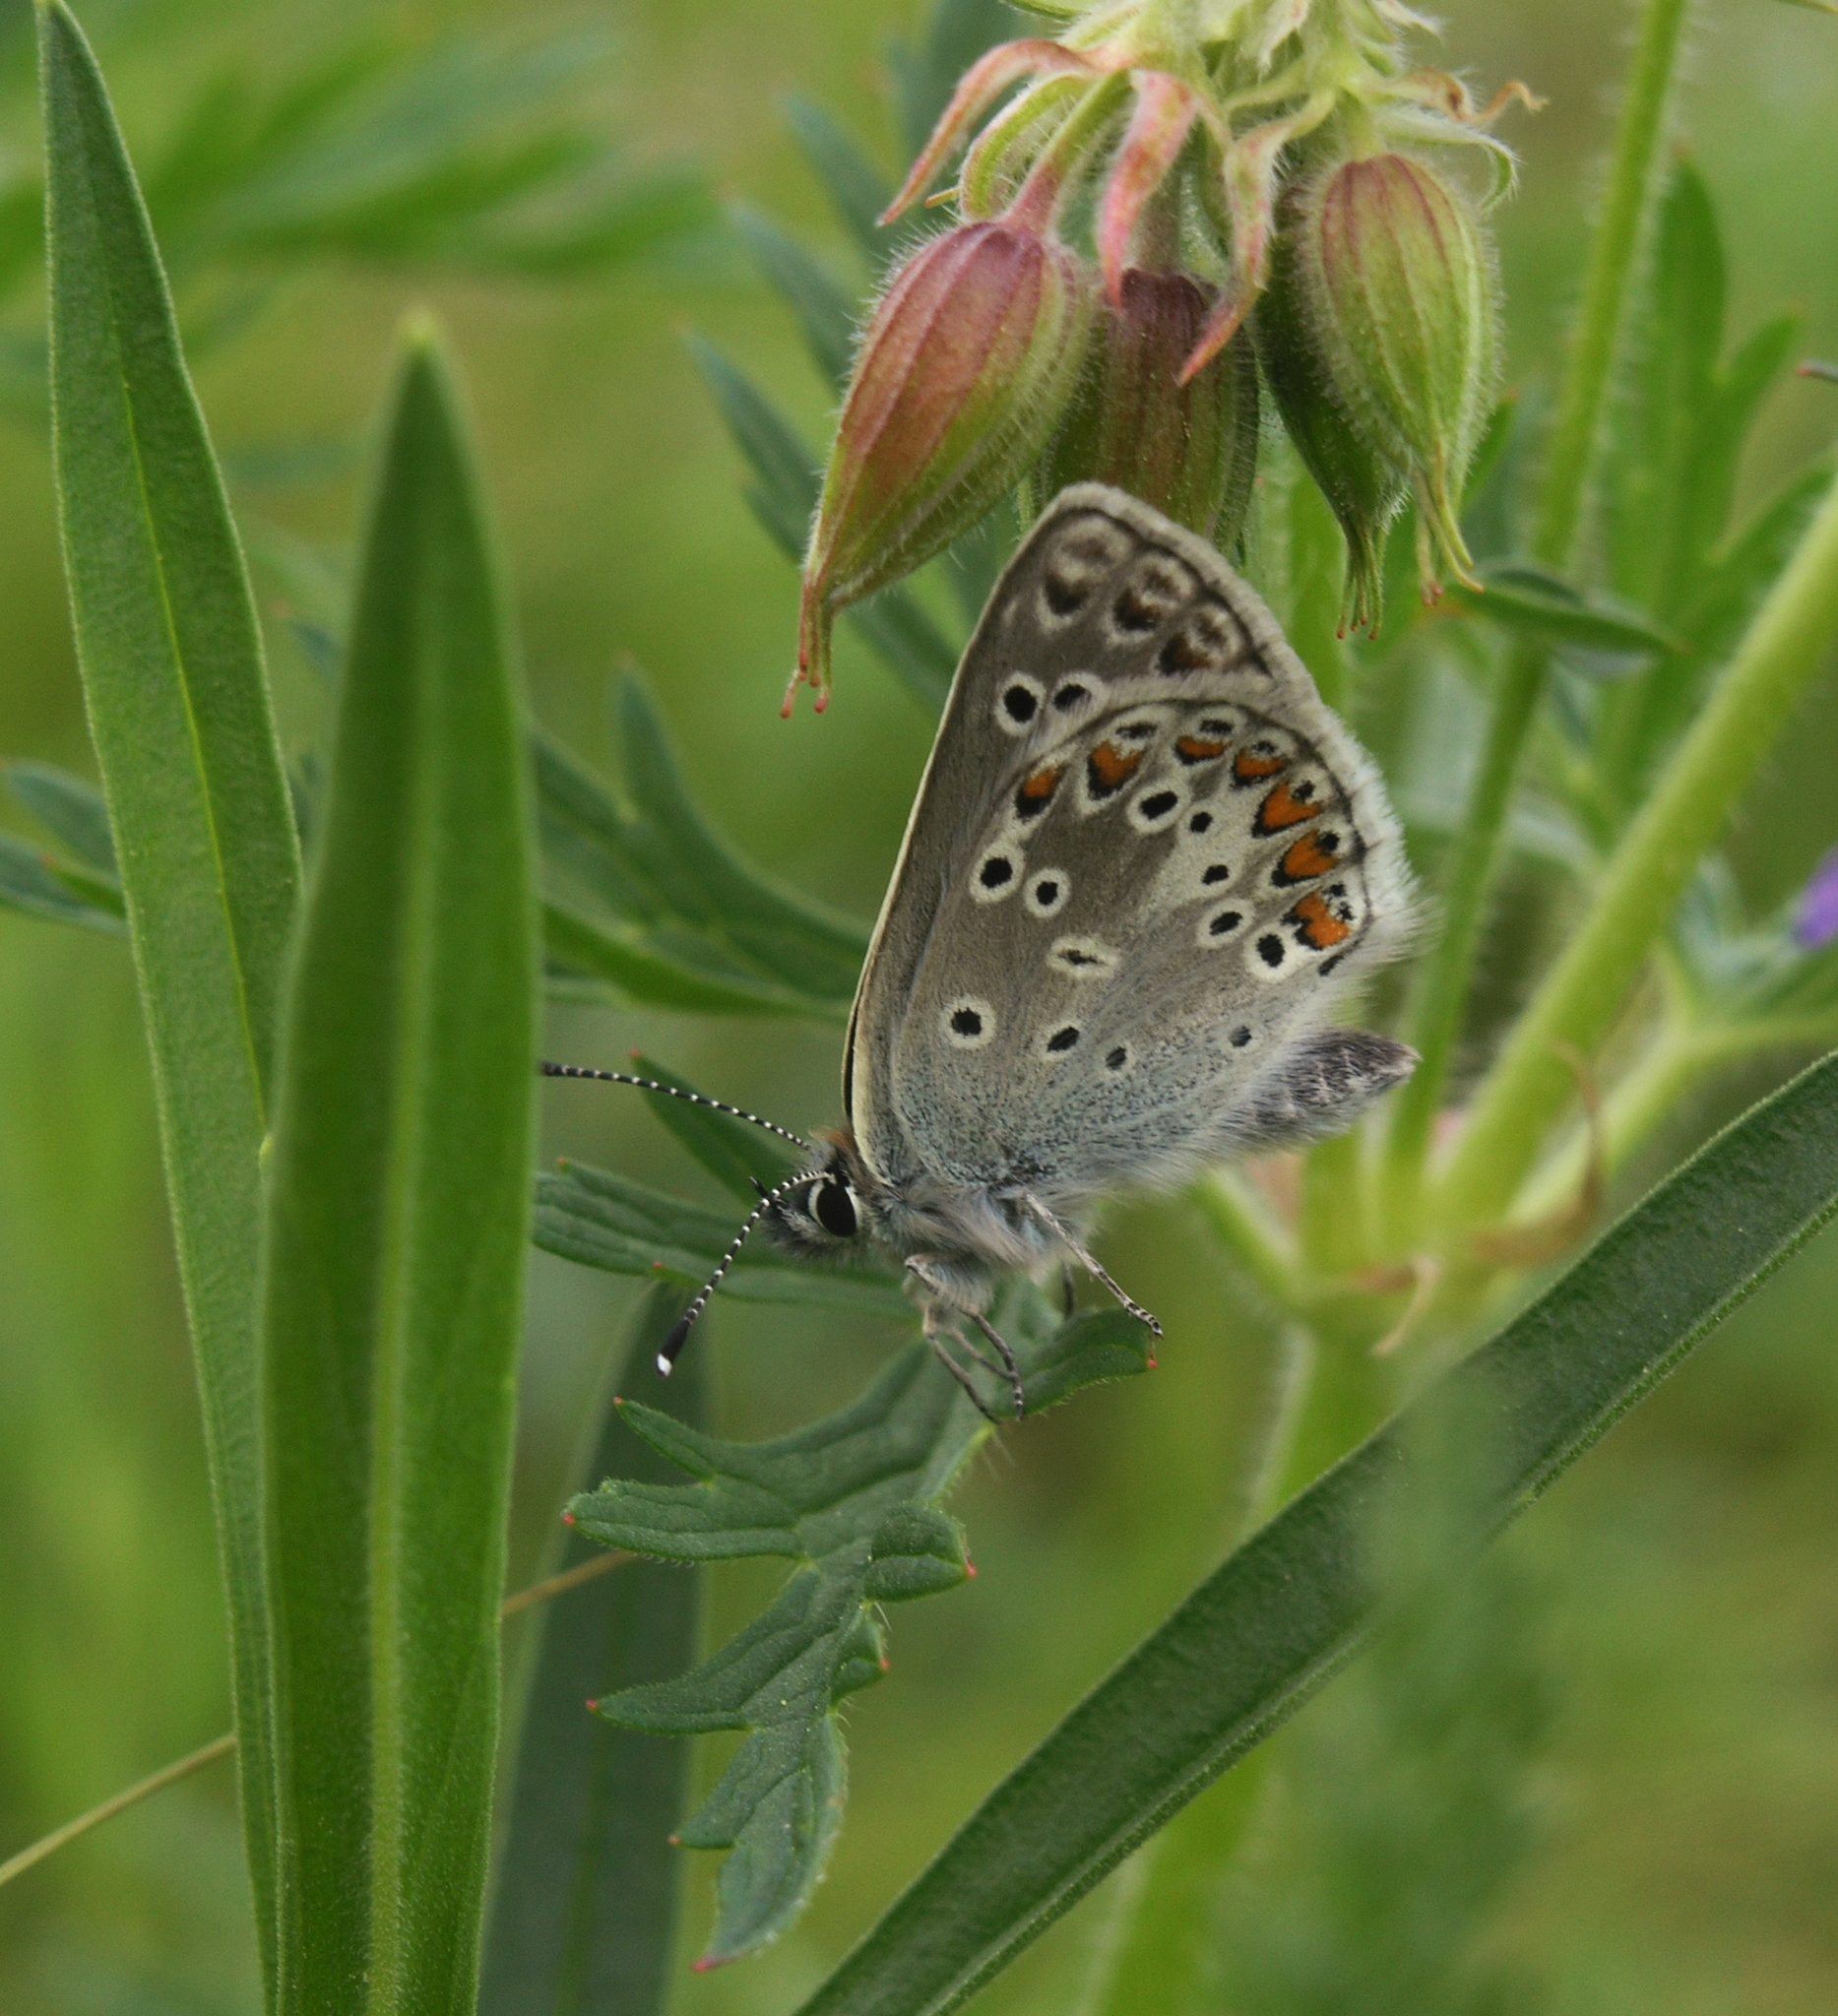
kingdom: Animalia
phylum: Arthropoda
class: Insecta
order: Lepidoptera
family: Lycaenidae
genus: Aricia
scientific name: Aricia artaxerxes
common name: Northern brown argus
